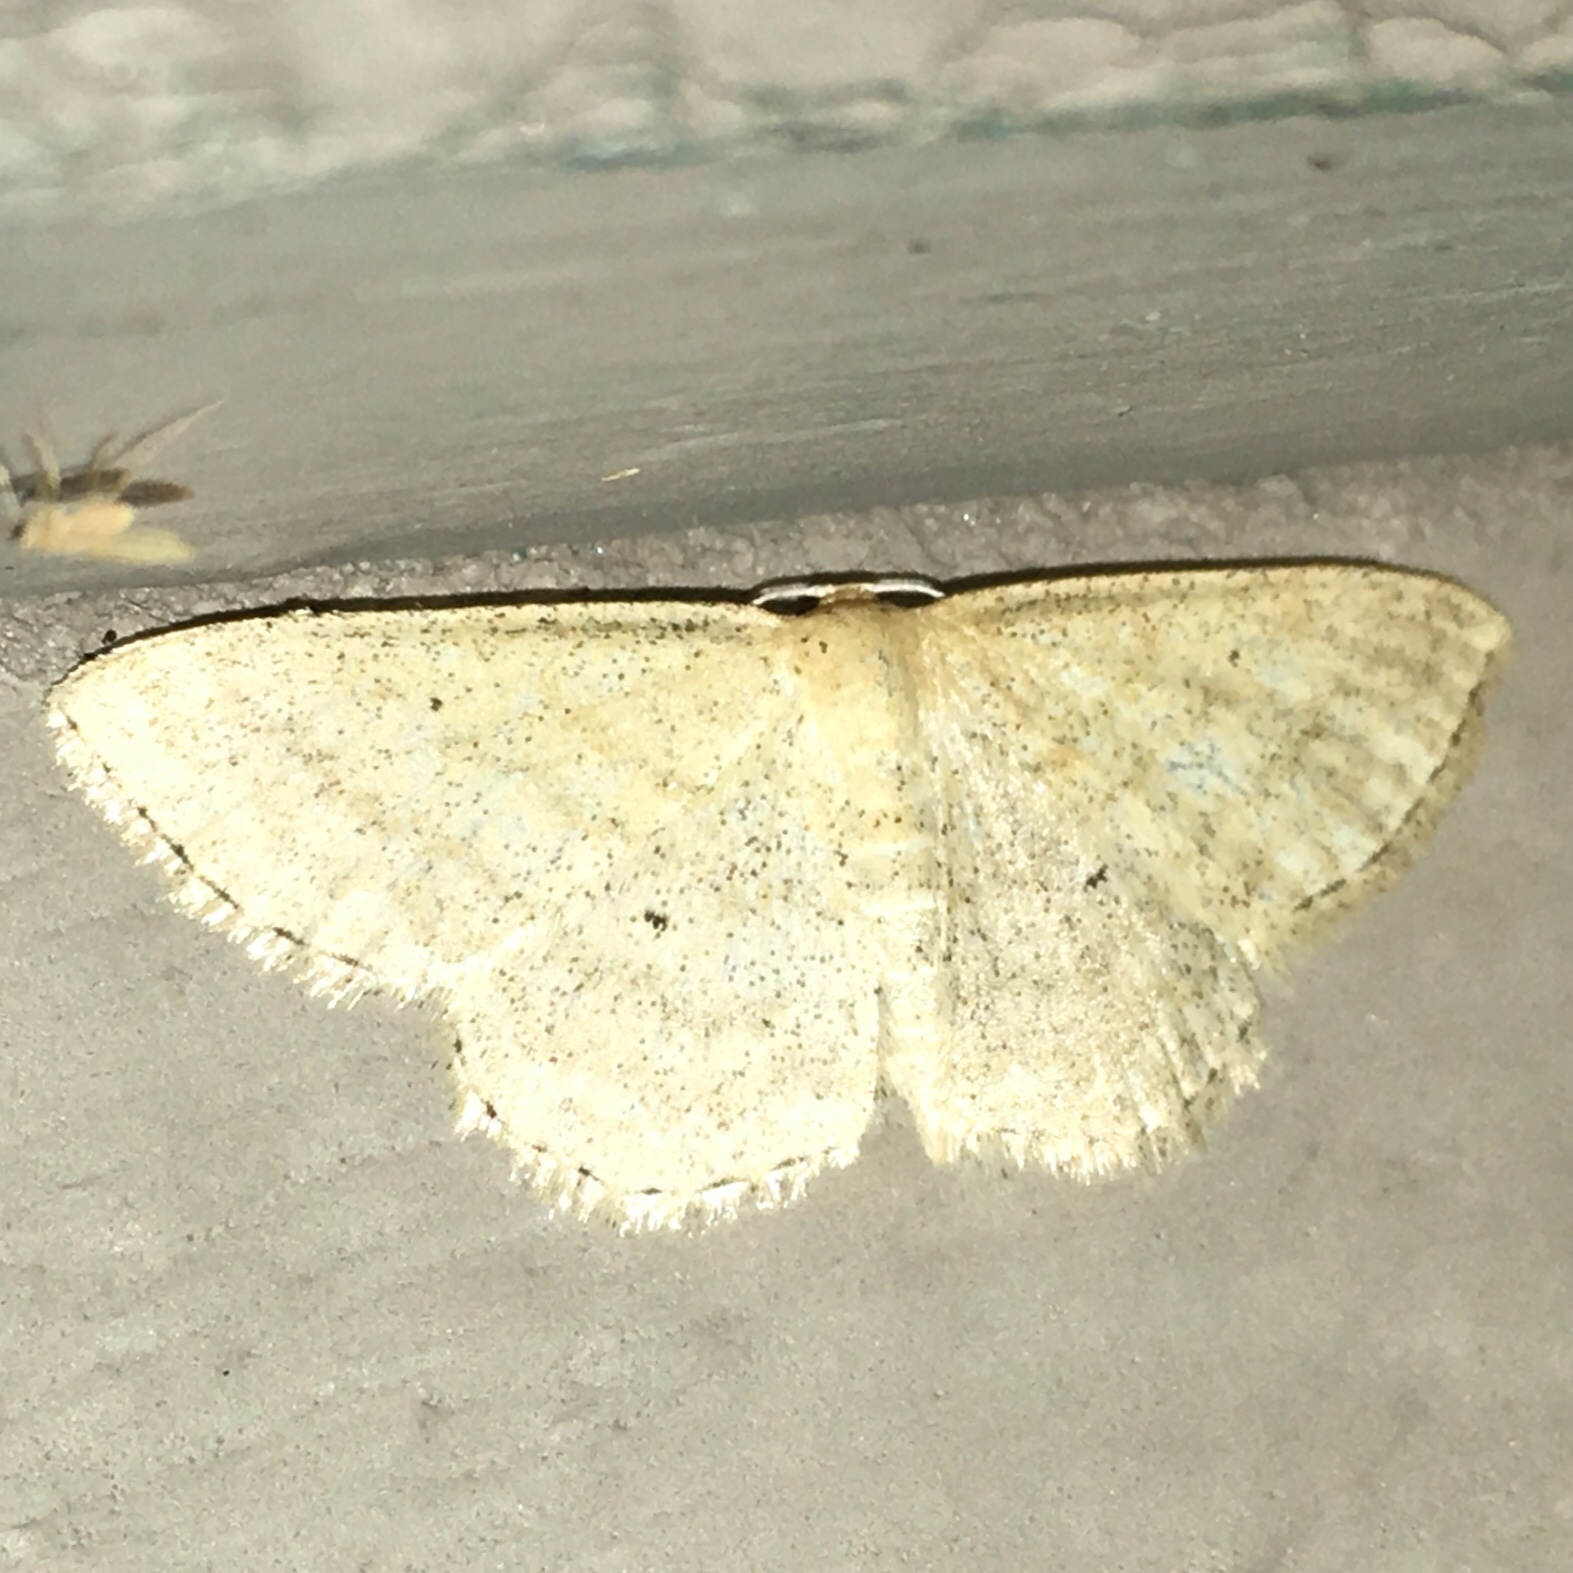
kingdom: Animalia
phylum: Arthropoda
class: Insecta
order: Lepidoptera
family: Geometridae
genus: Scopula
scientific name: Scopula inductata
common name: Soft-lined wave
